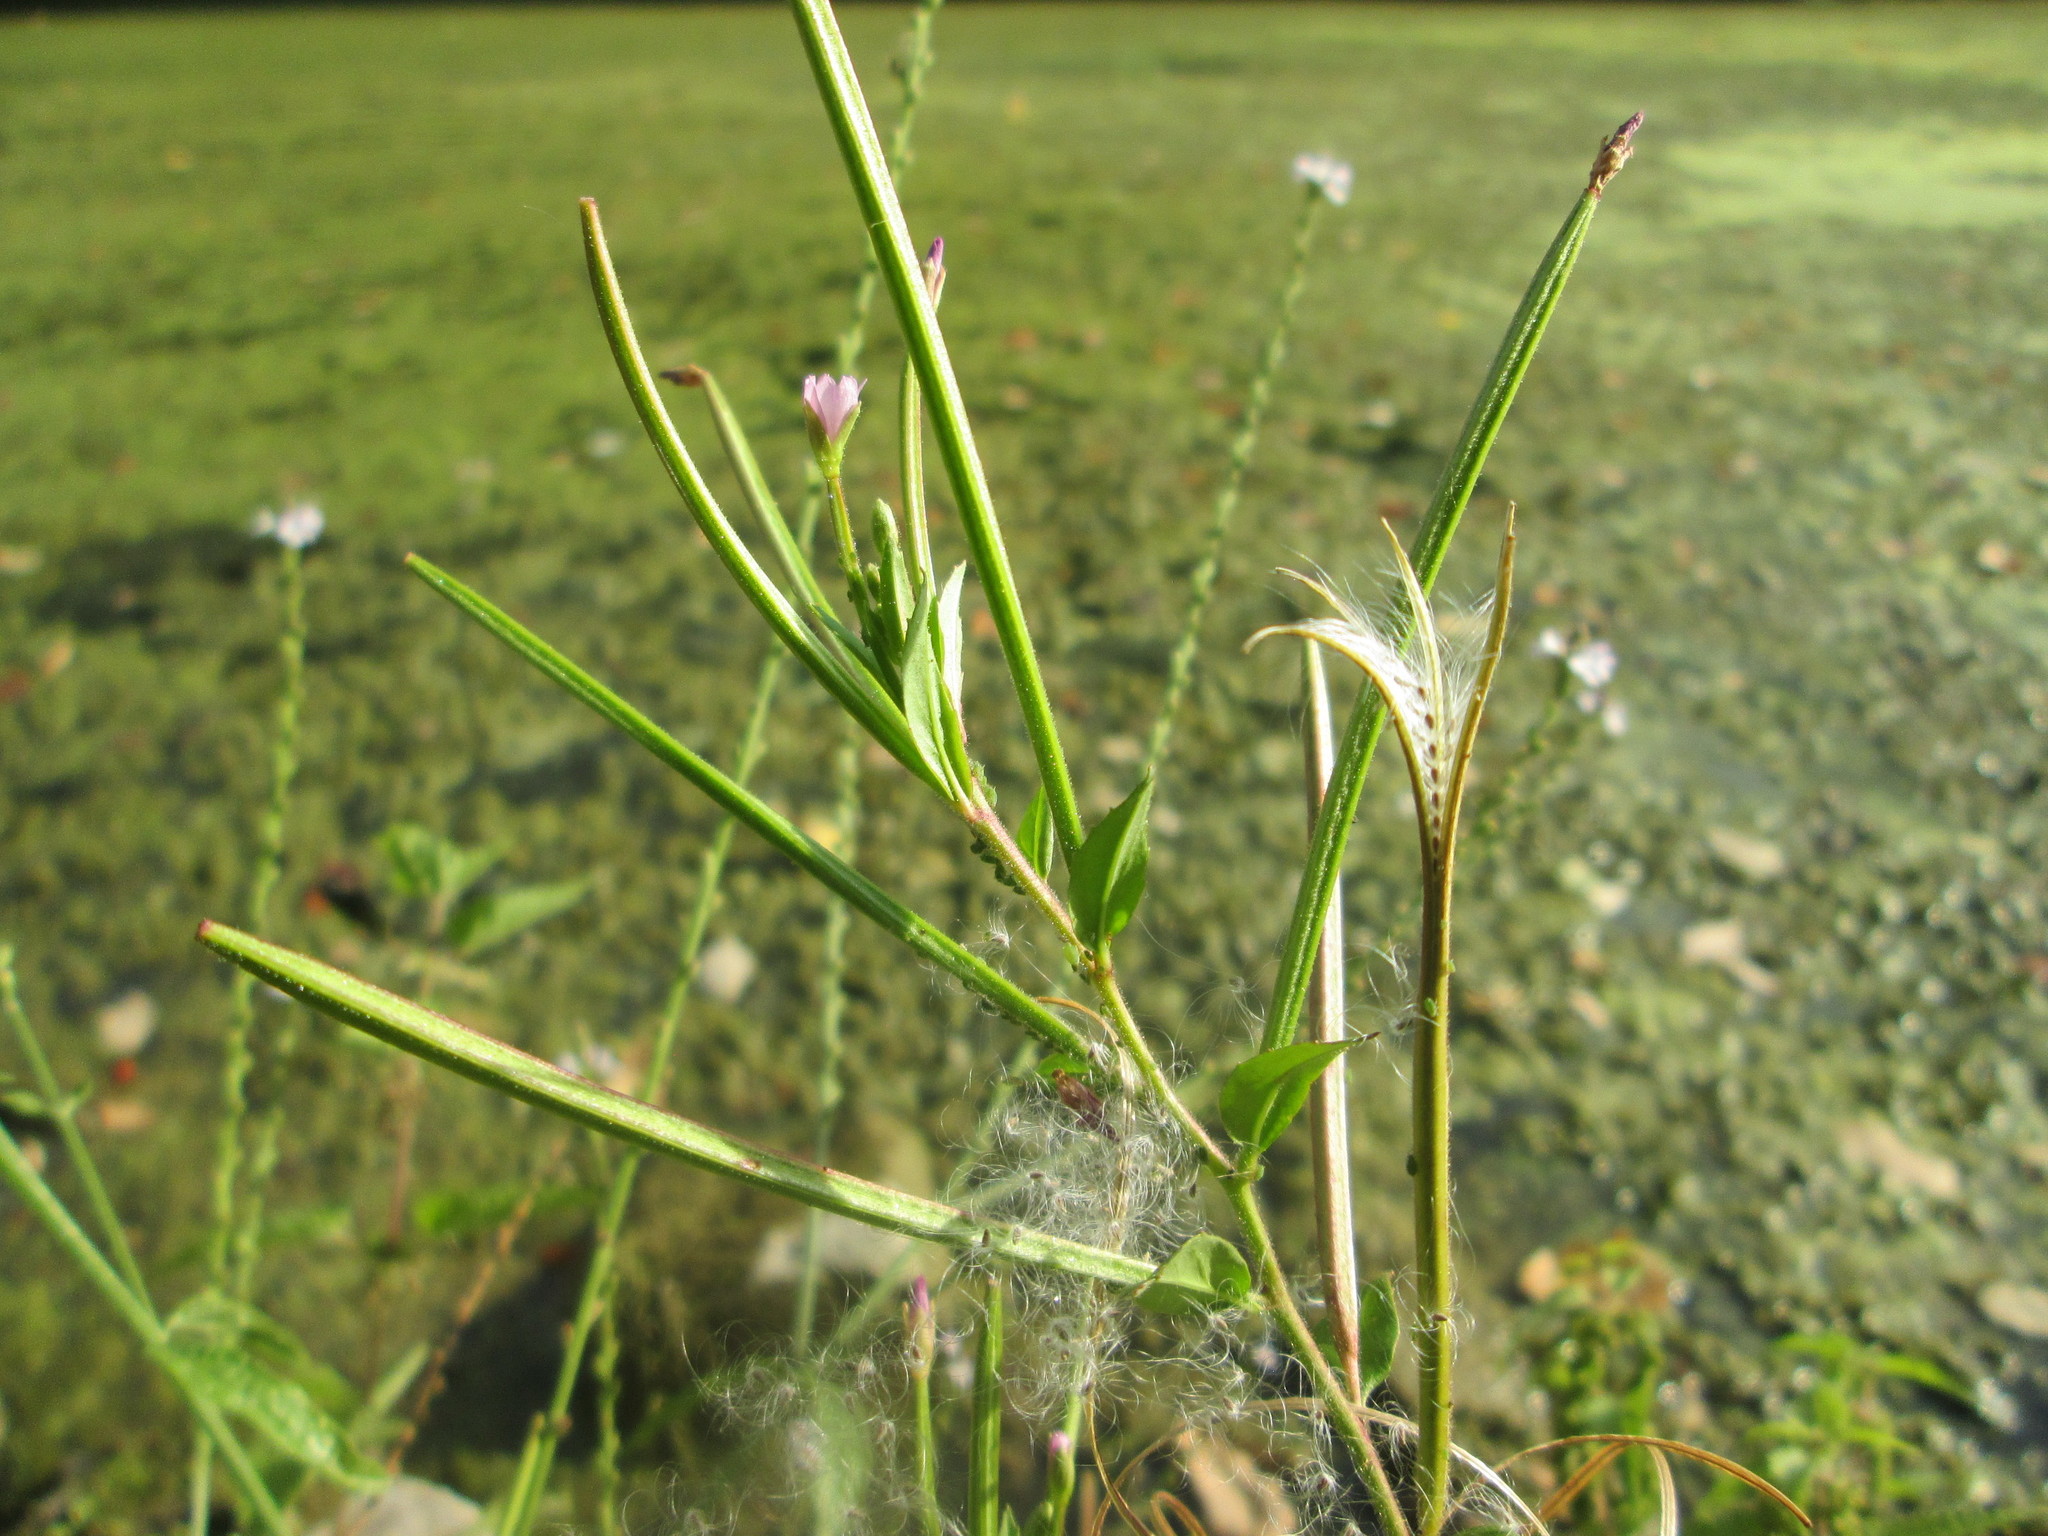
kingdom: Plantae
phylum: Tracheophyta
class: Magnoliopsida
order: Myrtales
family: Onagraceae
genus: Epilobium
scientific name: Epilobium tetragonum
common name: Square-stemmed willowherb
